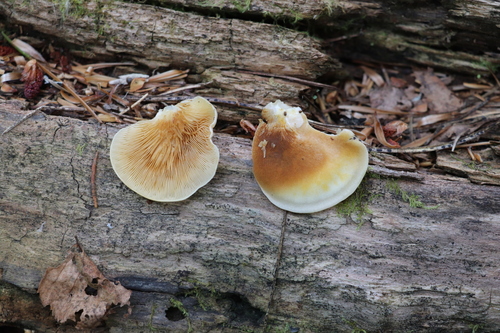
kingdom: Fungi
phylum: Basidiomycota
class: Agaricomycetes
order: Agaricales
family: Crepidotaceae
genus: Crepidotus
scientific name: Crepidotus cristatus
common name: Crested oysterling
